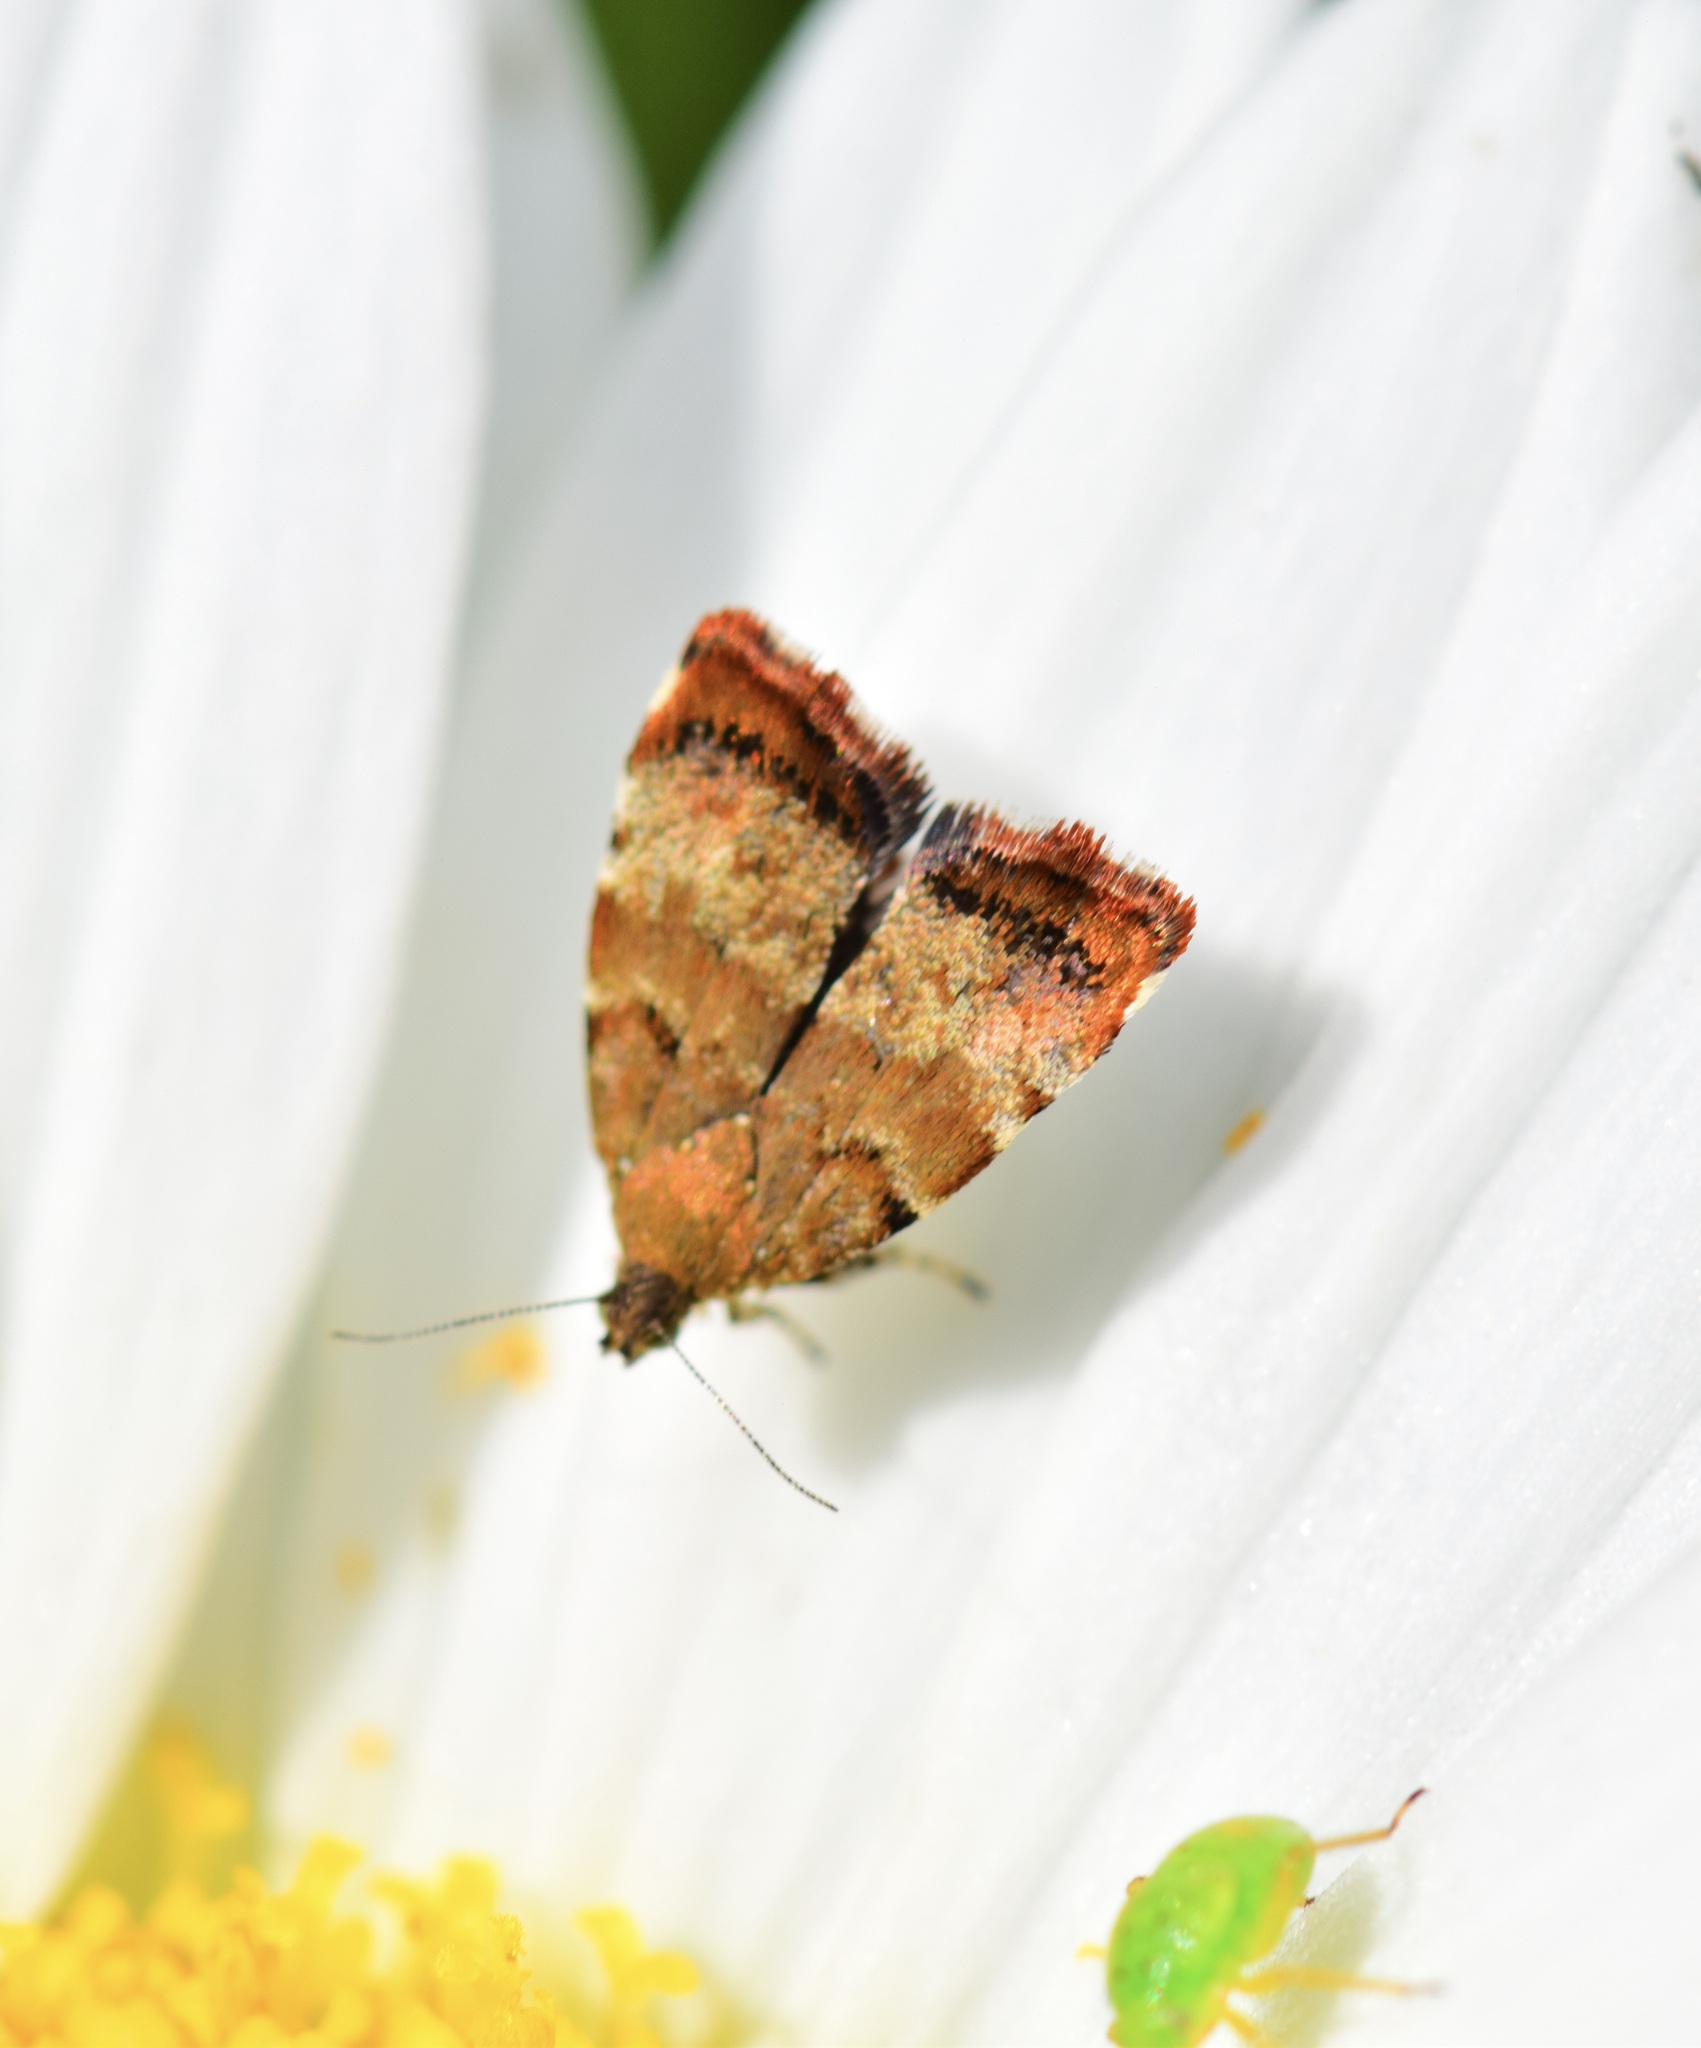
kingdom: Animalia
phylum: Arthropoda
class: Insecta
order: Lepidoptera
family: Choreutidae
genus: Choreutis
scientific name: Choreutis pariana
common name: Apple leaf skeletoniser
